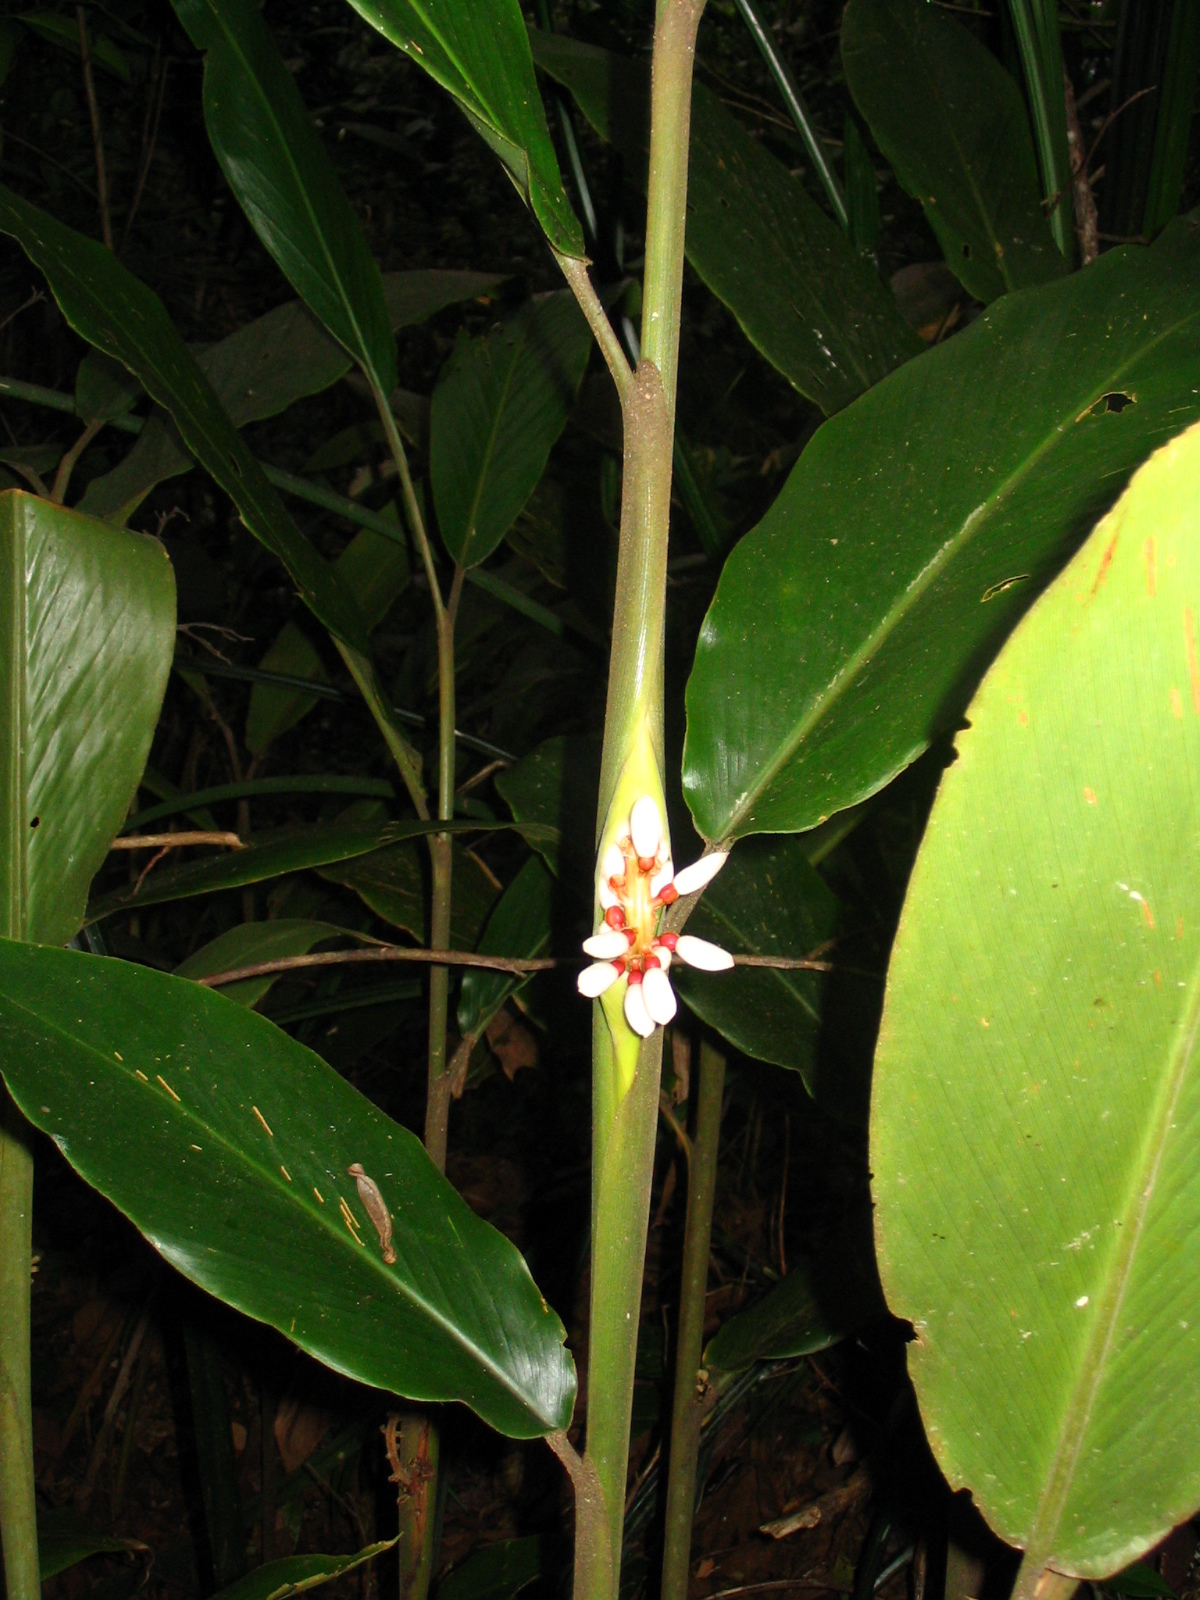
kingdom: Plantae
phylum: Tracheophyta
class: Liliopsida
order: Zingiberales
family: Zingiberaceae
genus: Alpinia
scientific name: Alpinia havilandii
